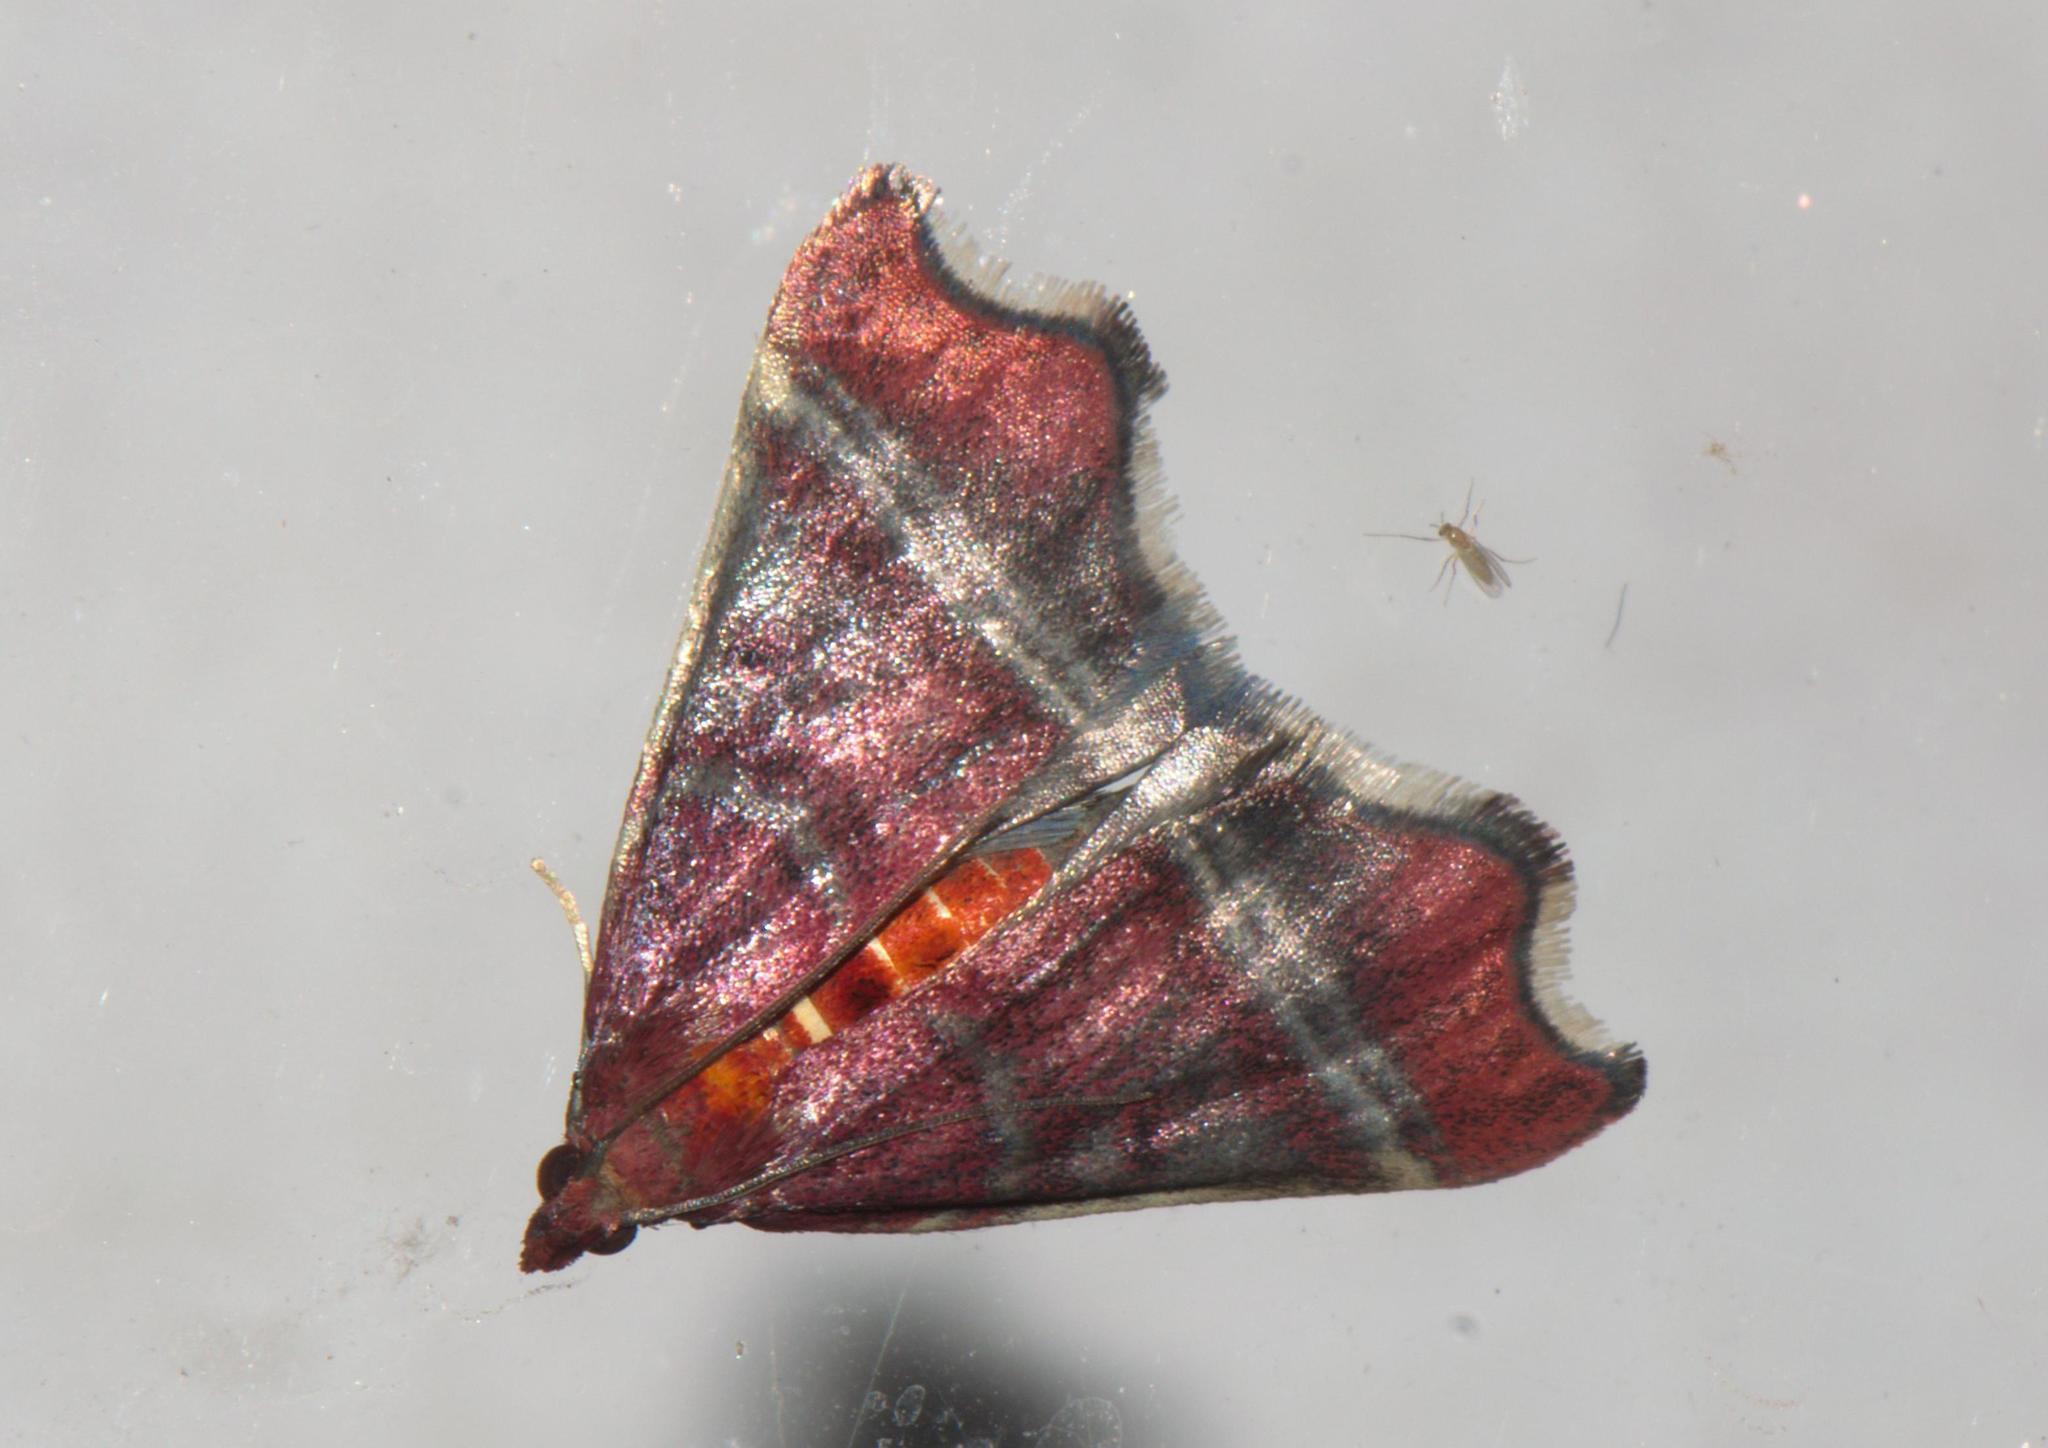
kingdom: Animalia
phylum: Arthropoda
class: Insecta
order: Lepidoptera
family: Crambidae
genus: Rodaba
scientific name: Rodaba angulipennis
